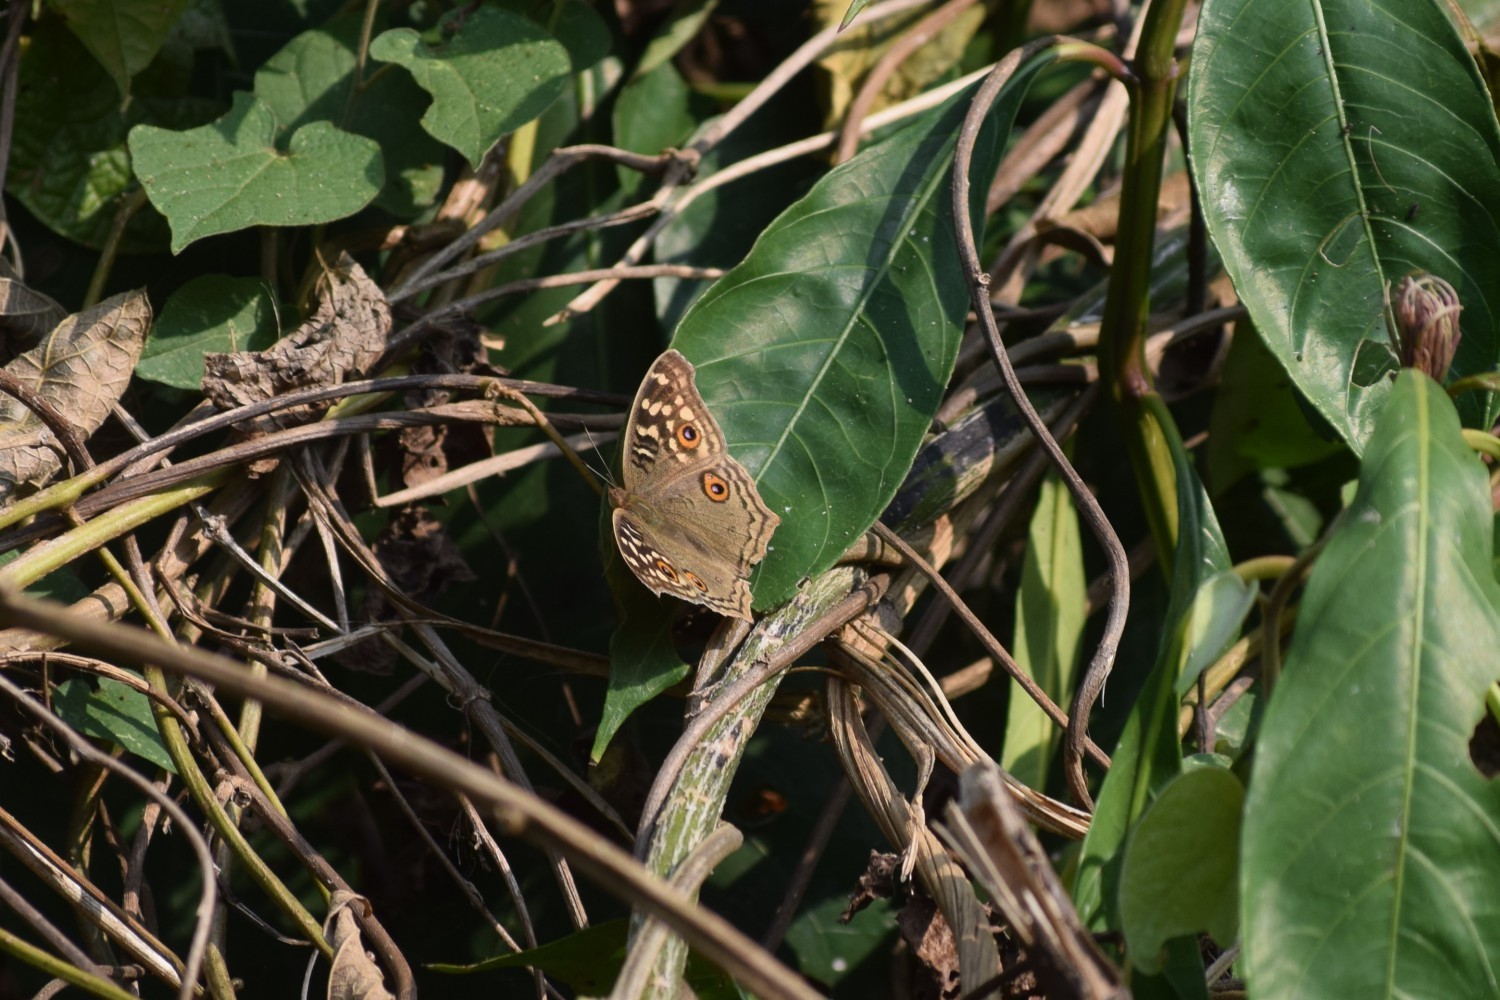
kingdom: Animalia
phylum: Arthropoda
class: Insecta
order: Lepidoptera
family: Nymphalidae
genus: Junonia
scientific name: Junonia lemonias
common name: Lemon pansy
